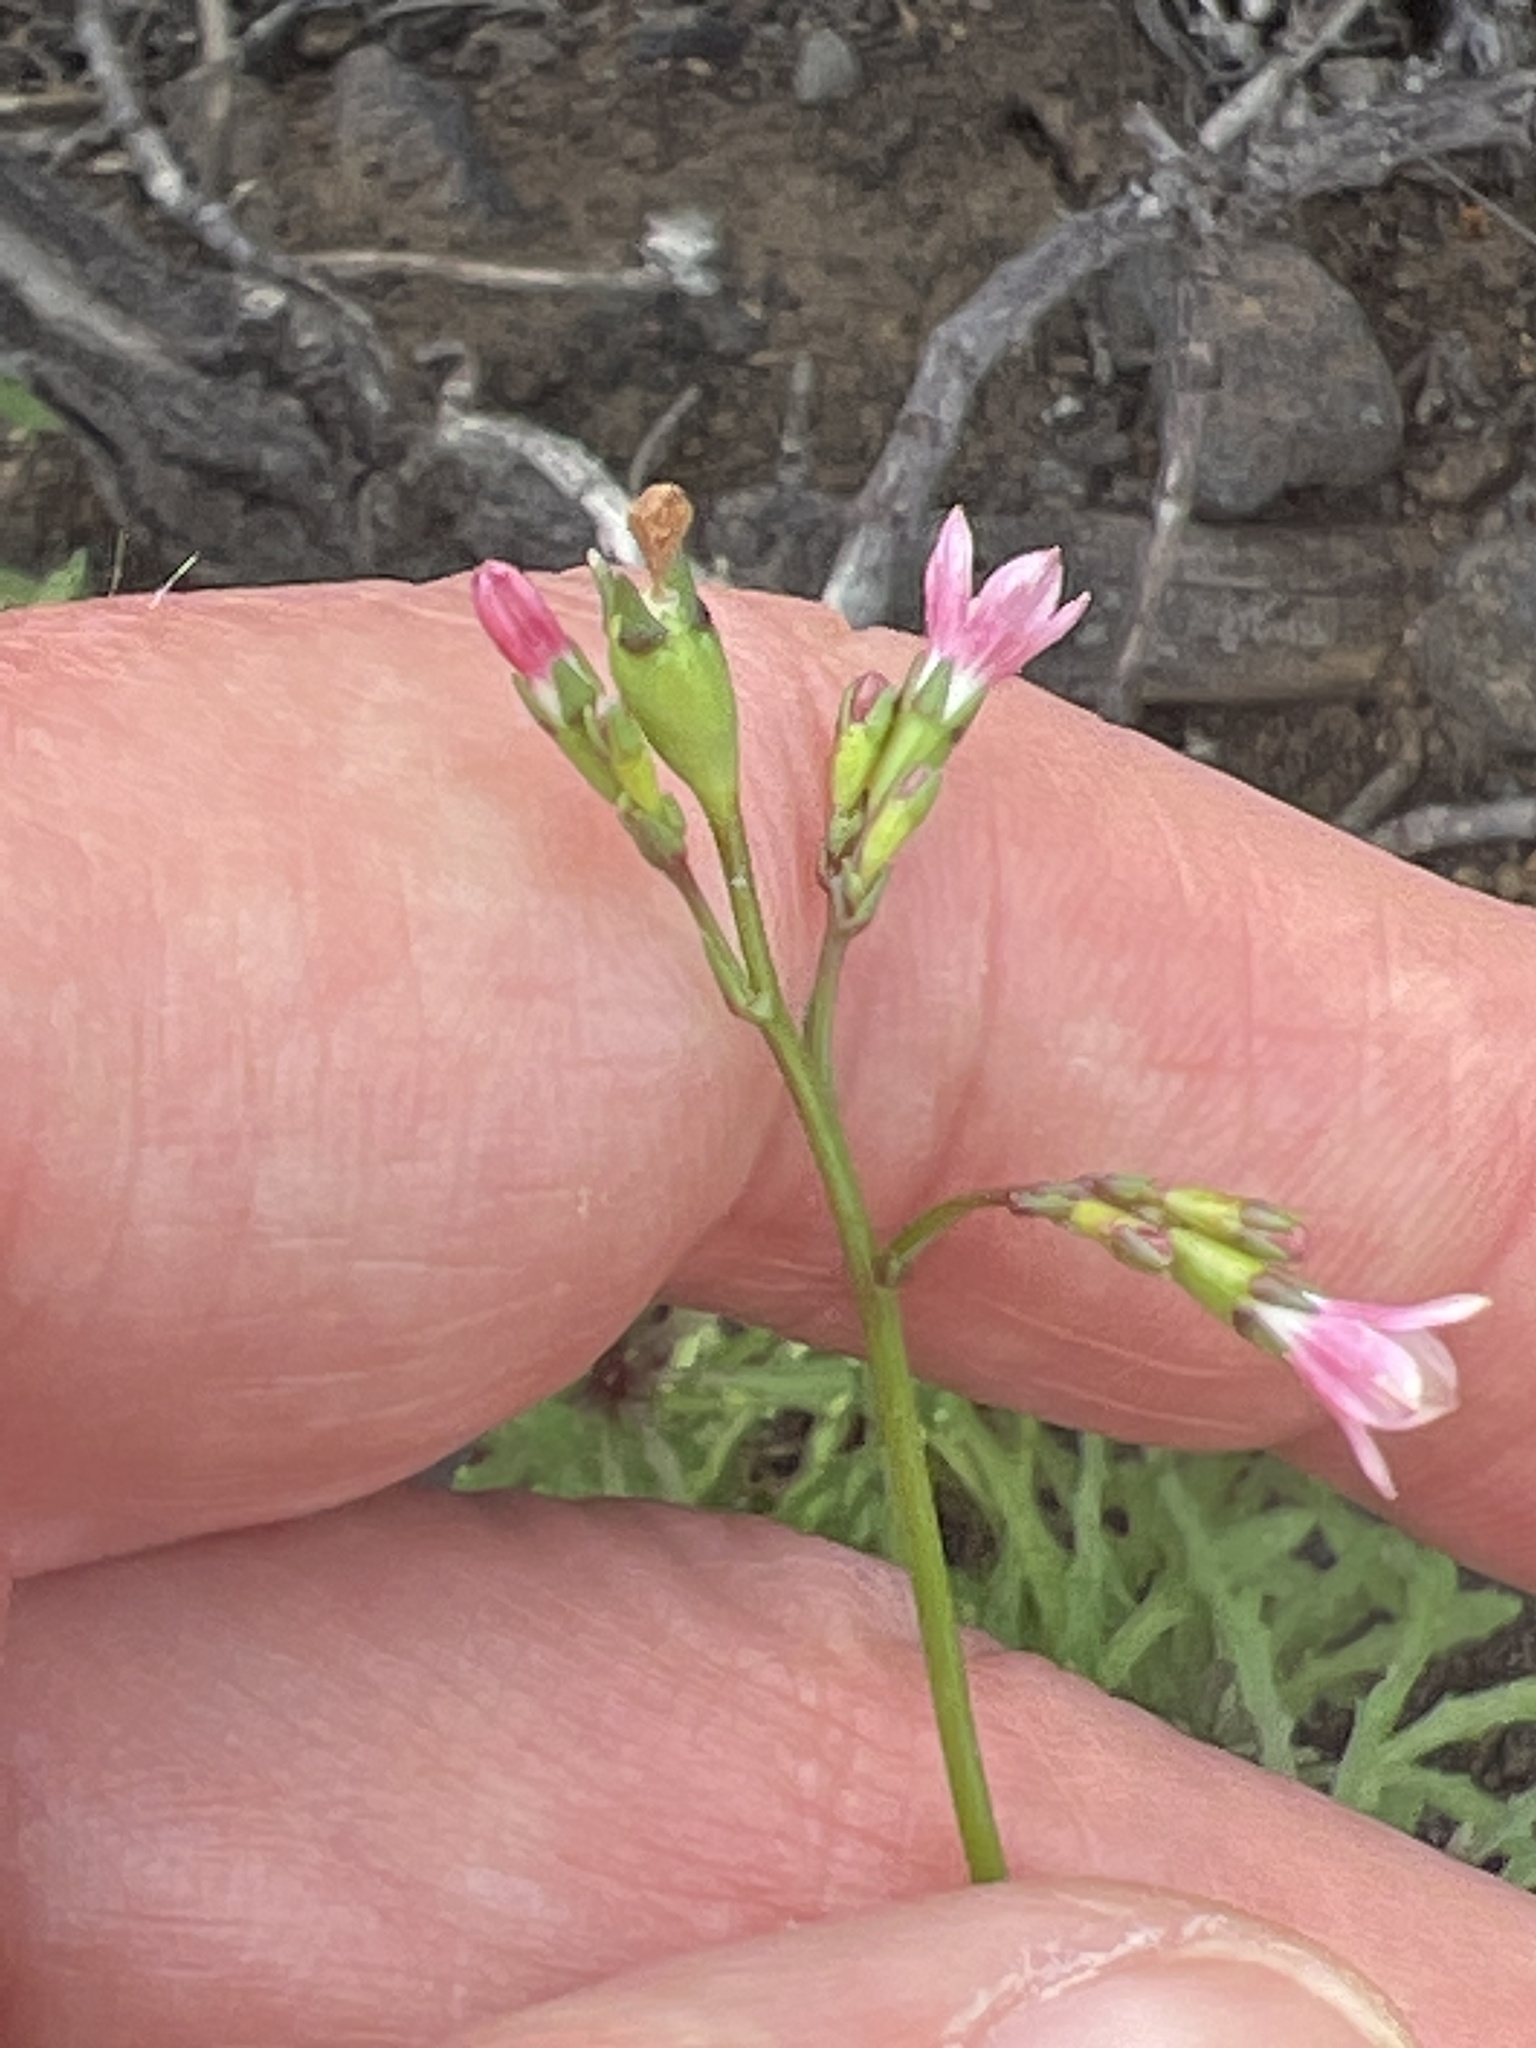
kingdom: Plantae
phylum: Tracheophyta
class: Magnoliopsida
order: Asterales
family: Campanulaceae
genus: Wahlenbergia
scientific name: Wahlenbergia lobelioides
